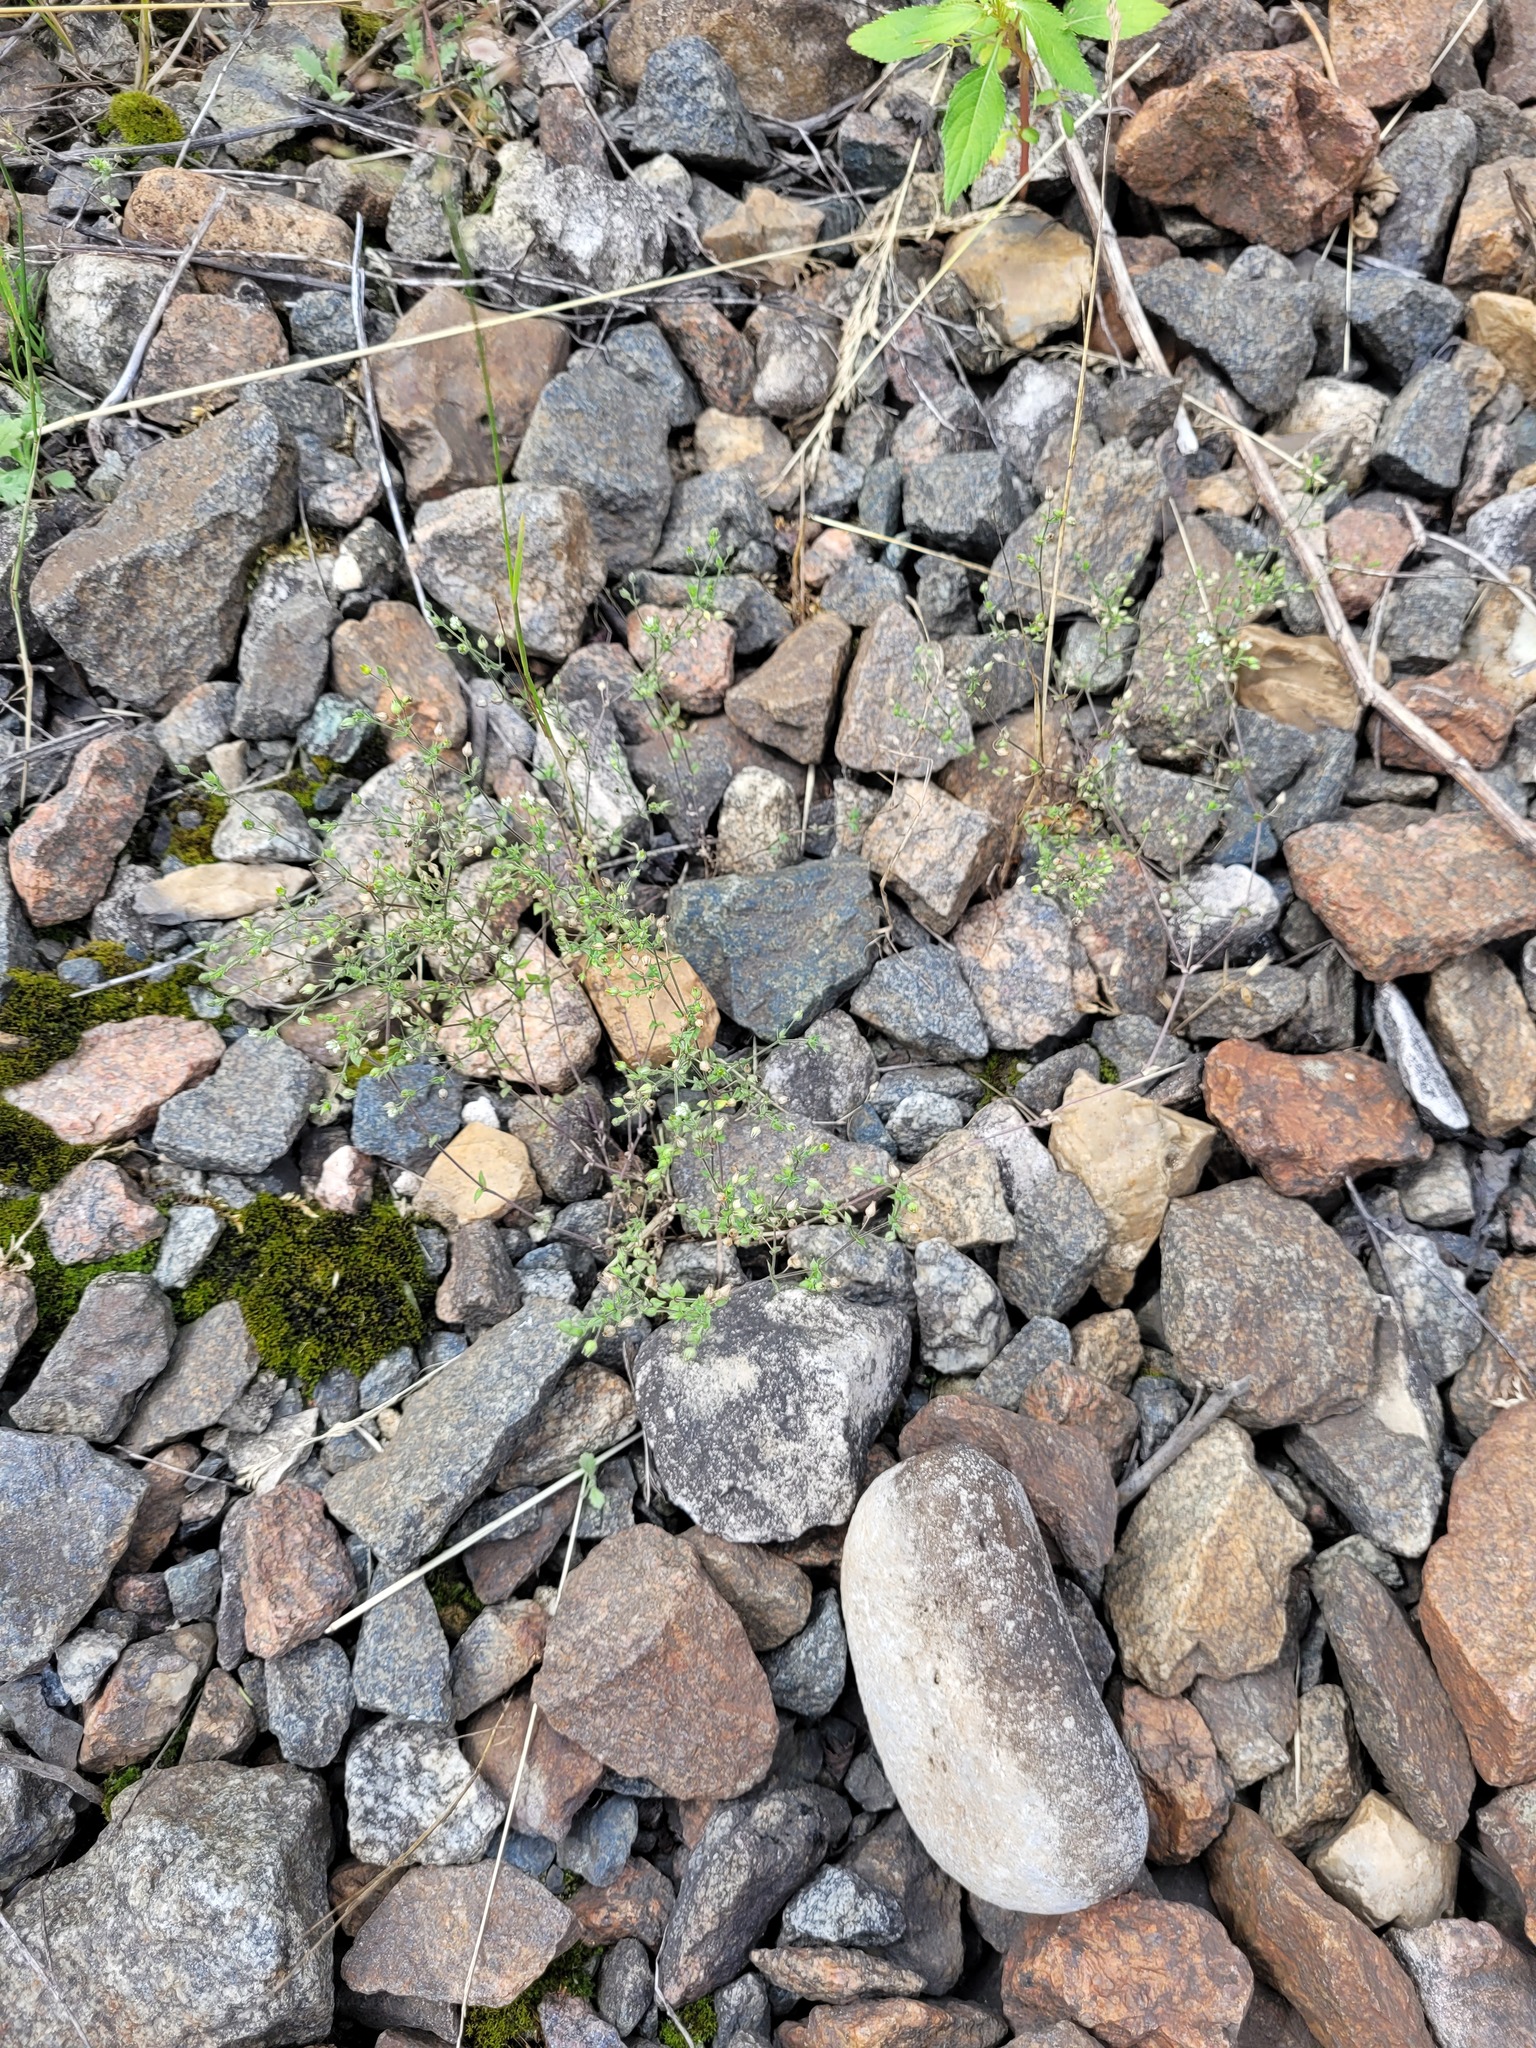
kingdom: Plantae
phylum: Tracheophyta
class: Magnoliopsida
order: Caryophyllales
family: Caryophyllaceae
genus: Arenaria
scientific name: Arenaria serpyllifolia
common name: Thyme-leaved sandwort
